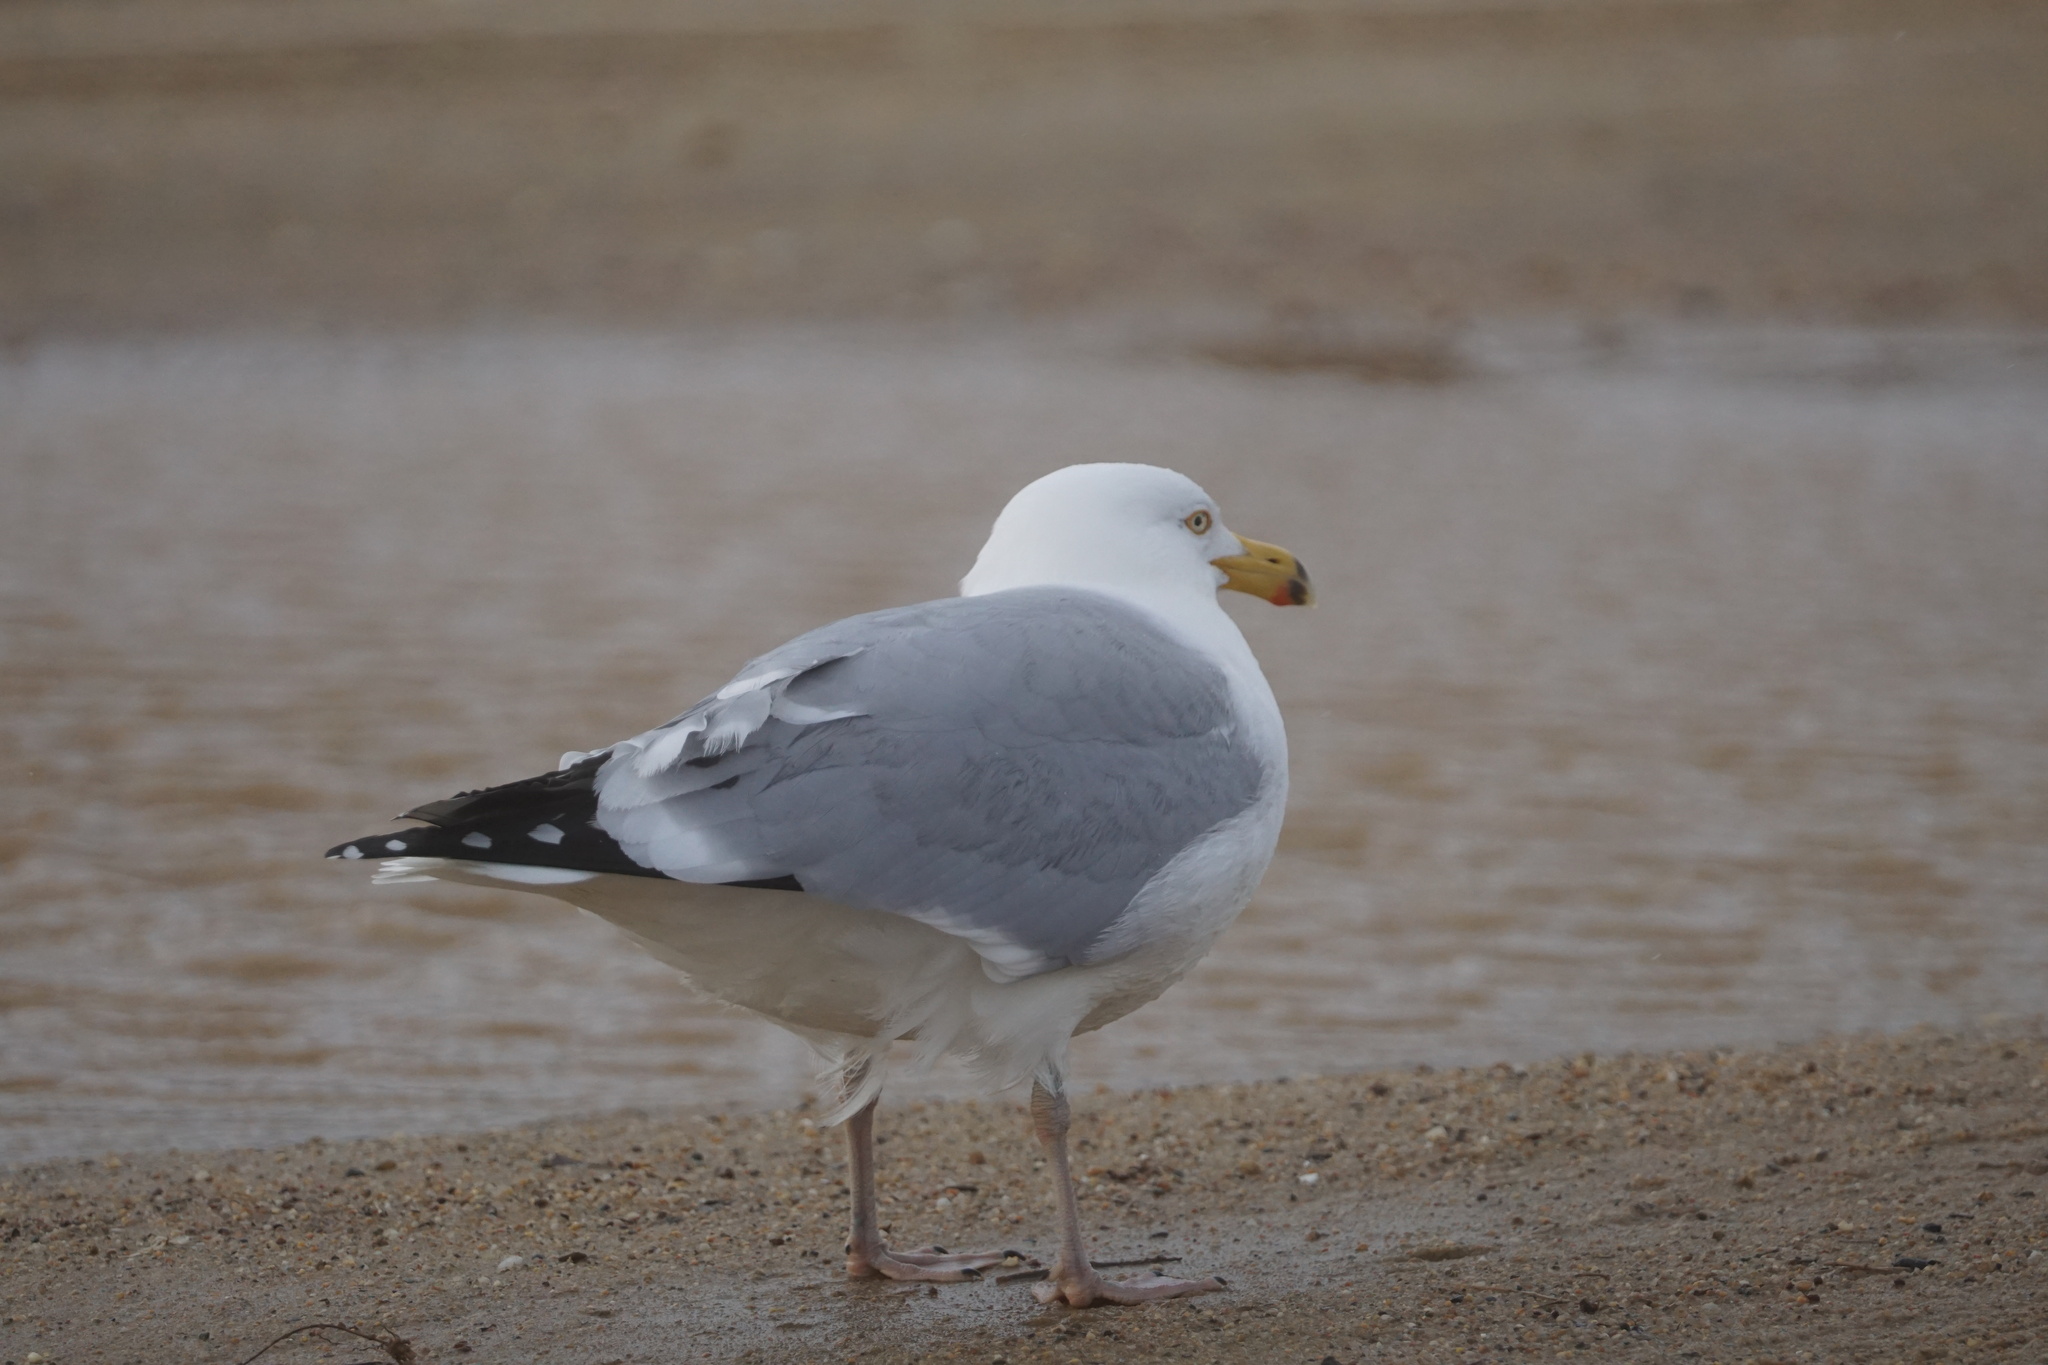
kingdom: Animalia
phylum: Chordata
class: Aves
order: Charadriiformes
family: Laridae
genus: Larus
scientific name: Larus argentatus
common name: Herring gull
